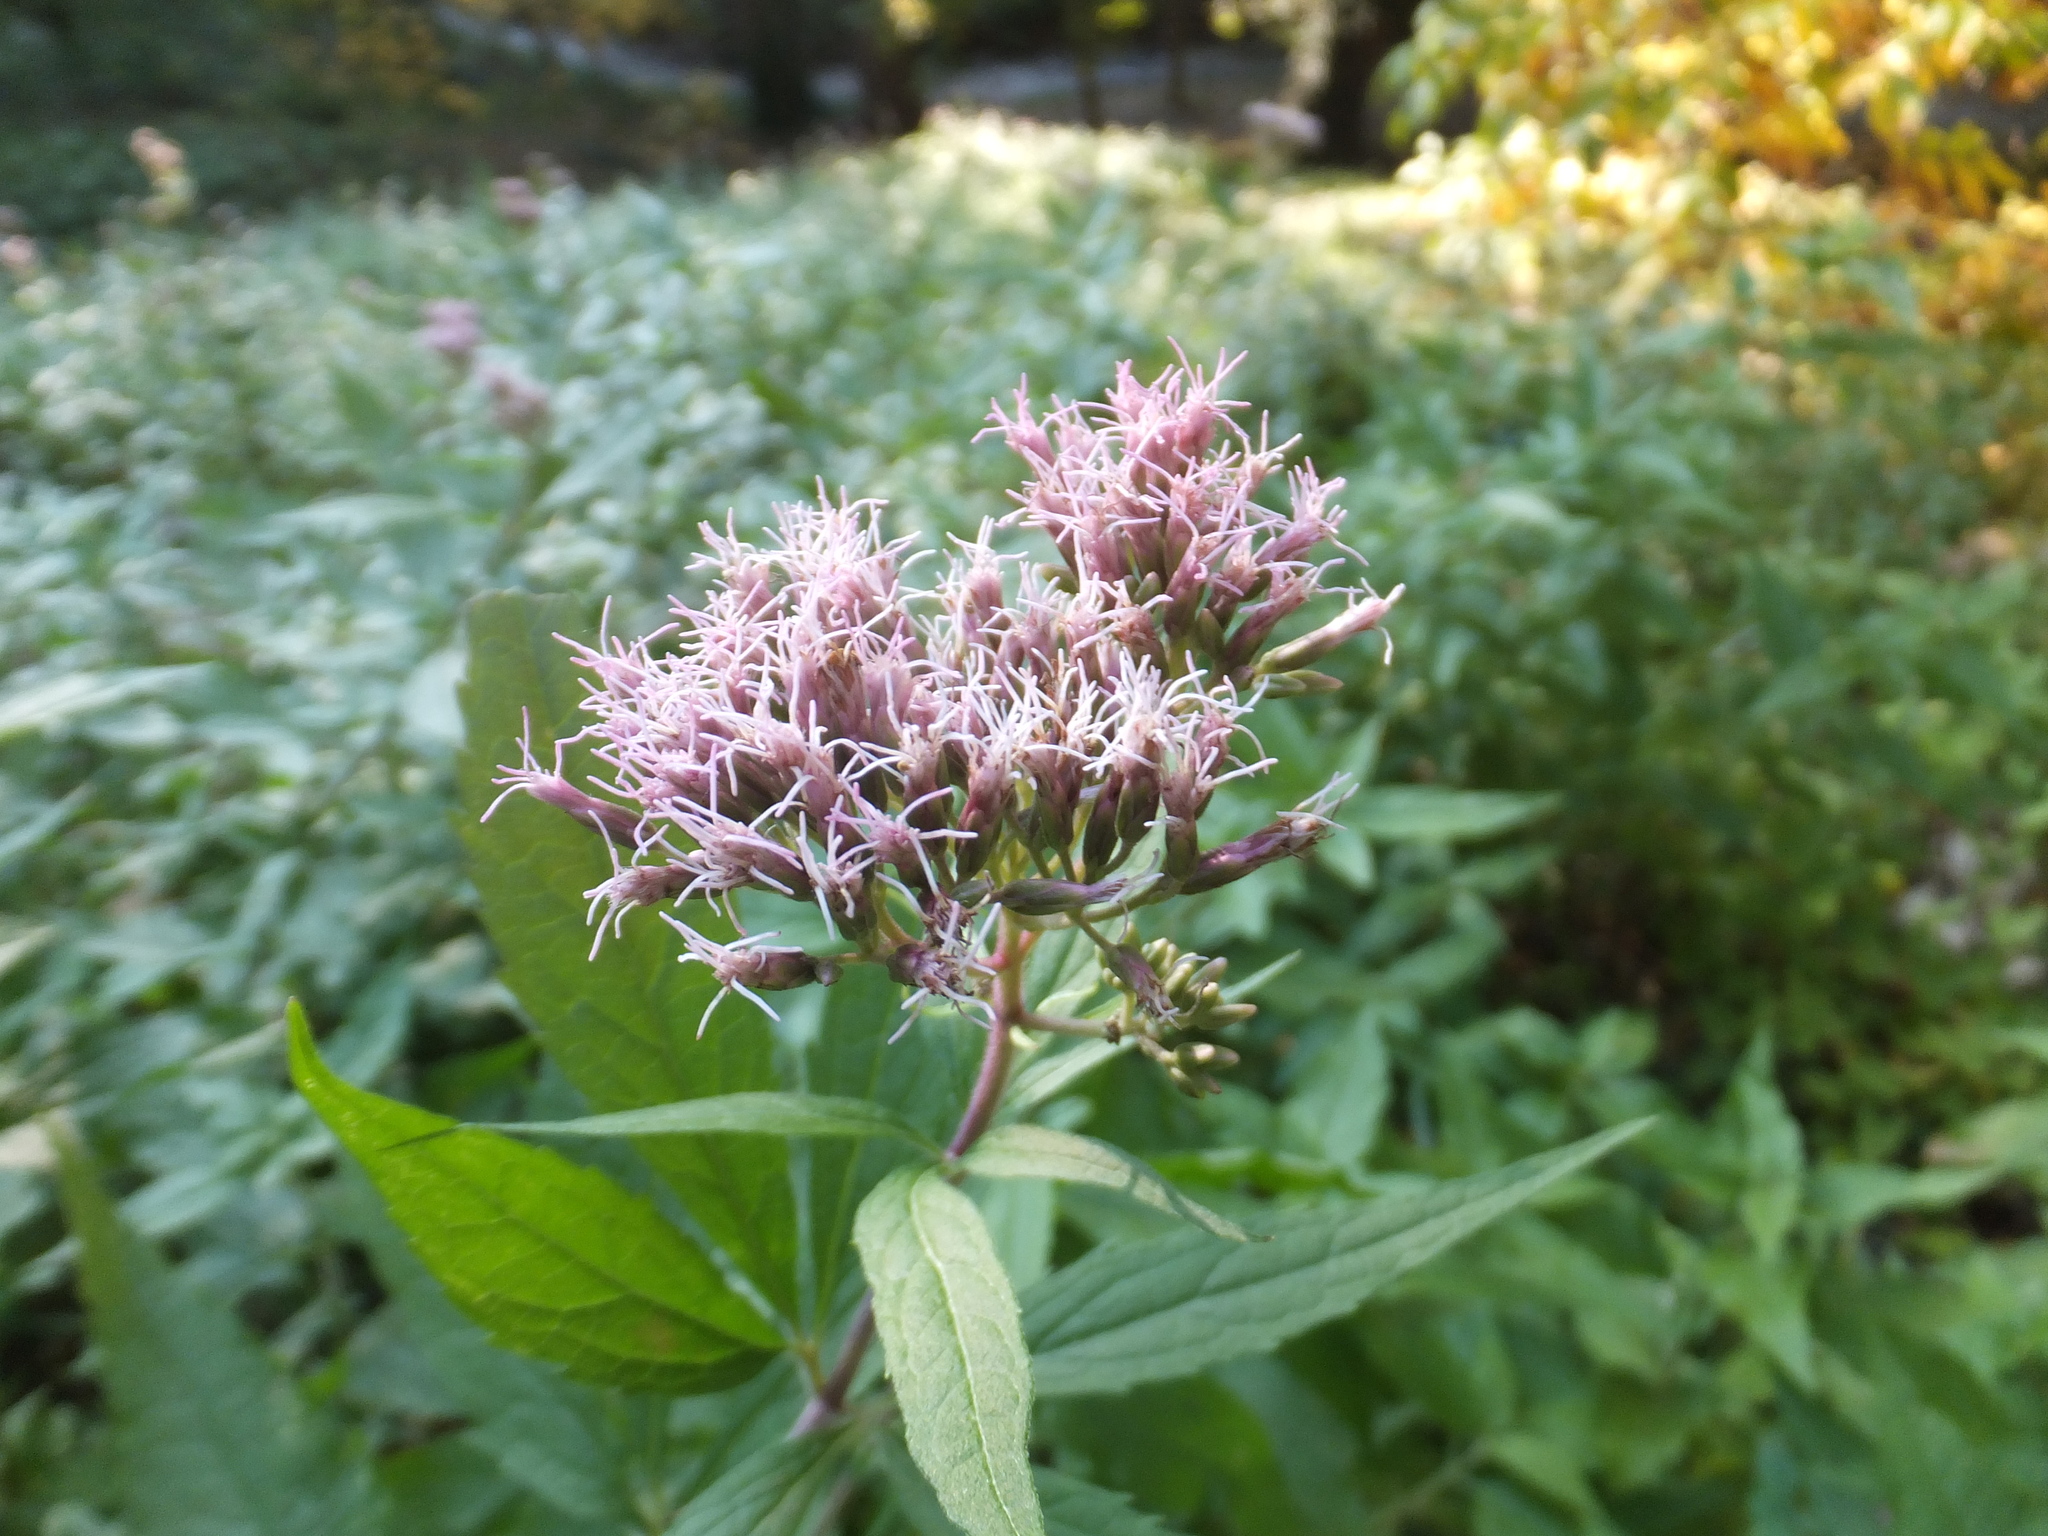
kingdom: Plantae
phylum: Tracheophyta
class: Magnoliopsida
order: Asterales
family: Asteraceae
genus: Eupatorium
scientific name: Eupatorium cannabinum
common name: Hemp-agrimony
